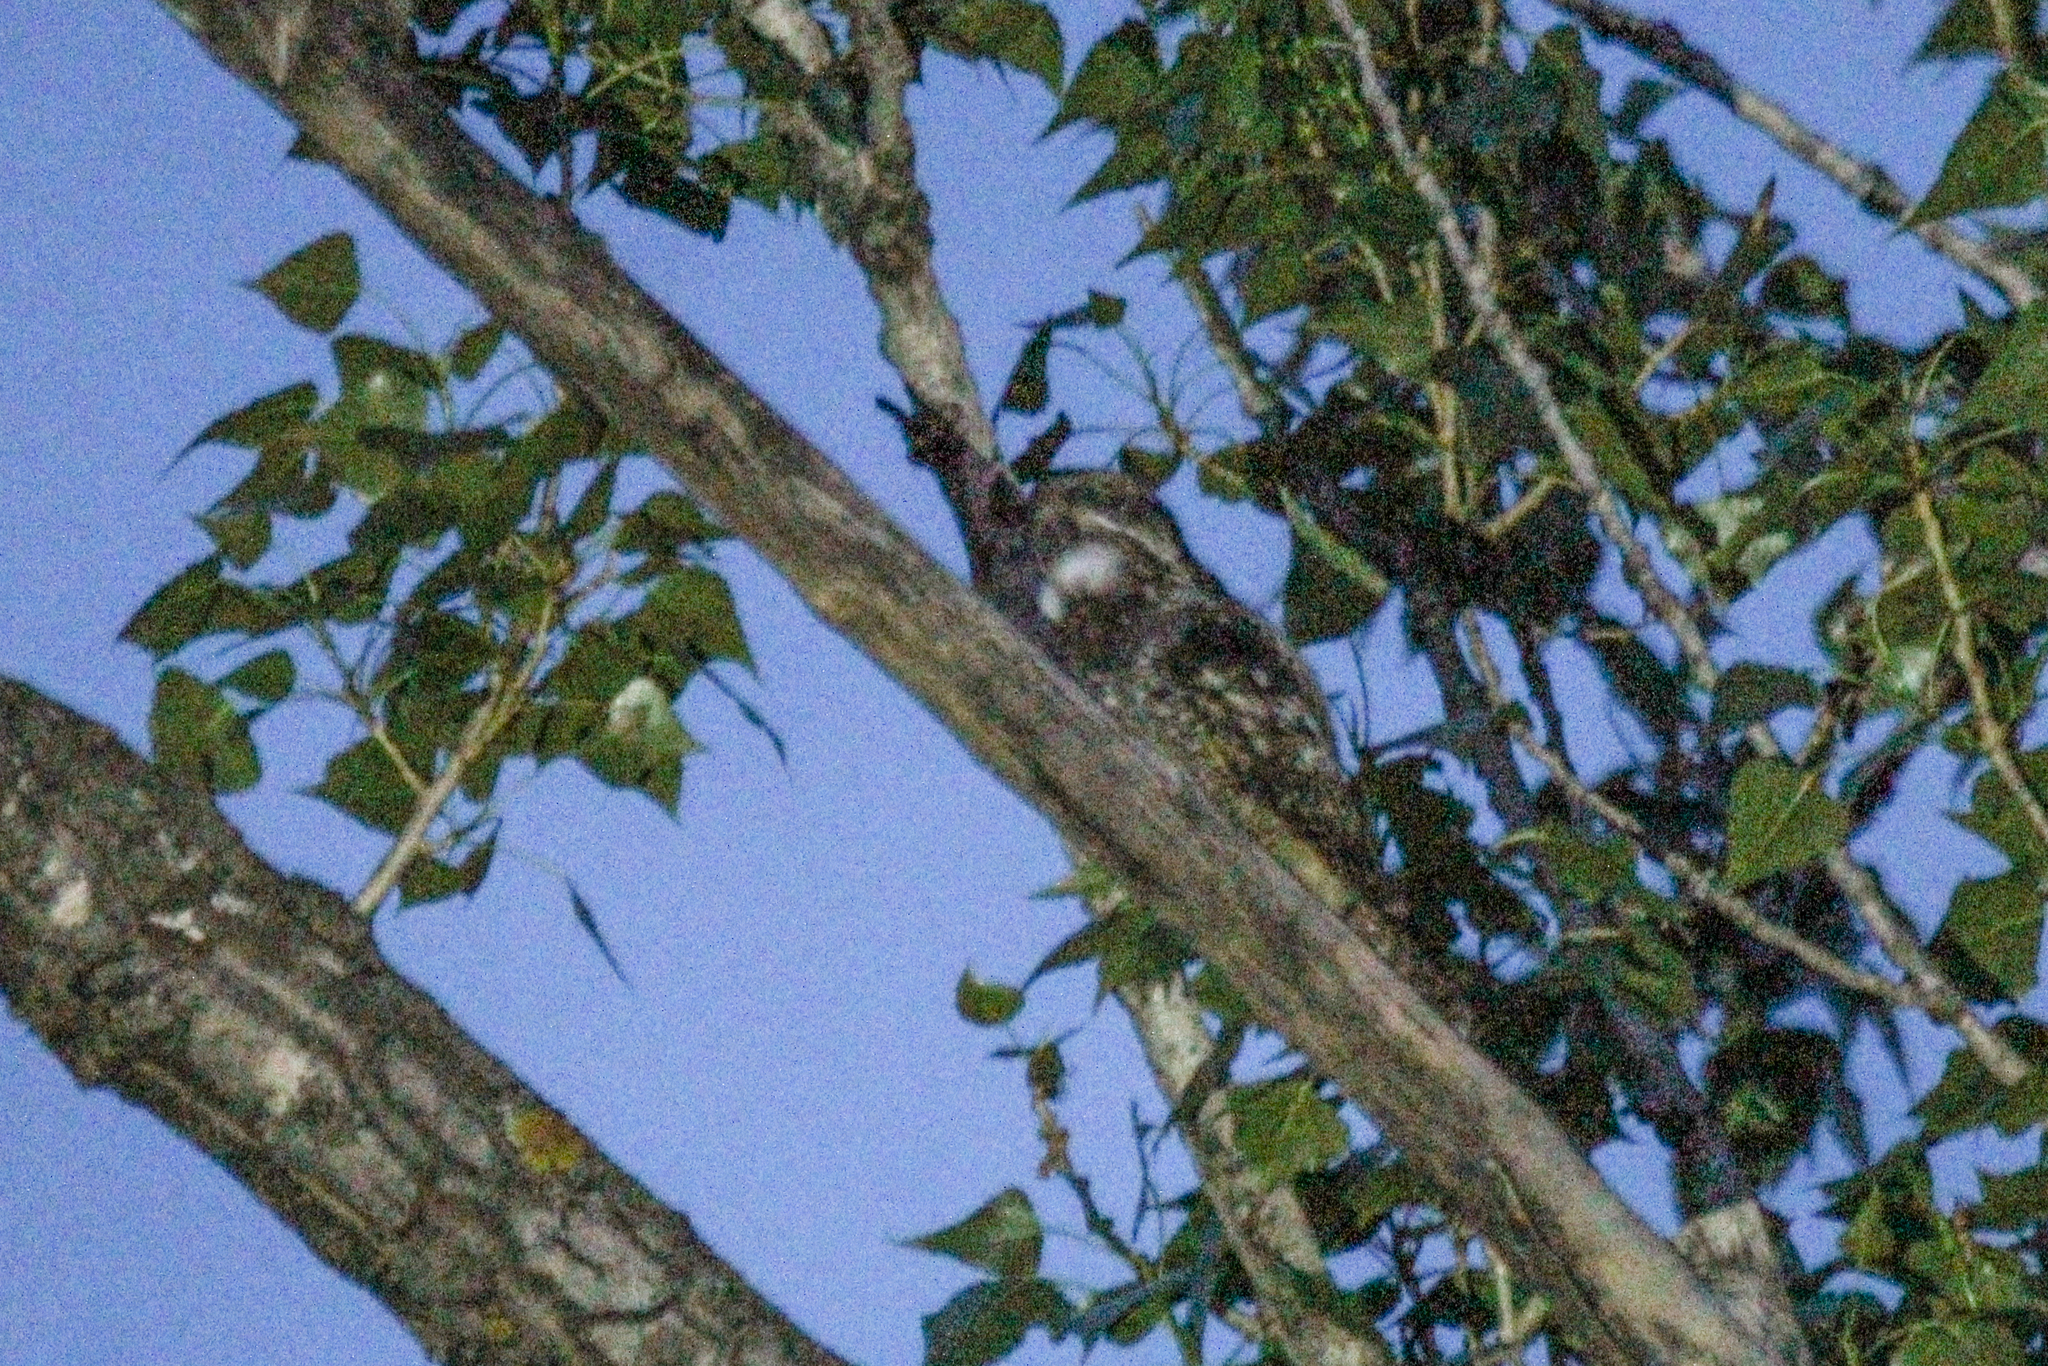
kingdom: Animalia
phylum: Chordata
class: Aves
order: Caprimulgiformes
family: Caprimulgidae
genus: Caprimulgus
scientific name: Caprimulgus jotaka
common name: Grey nightjar
